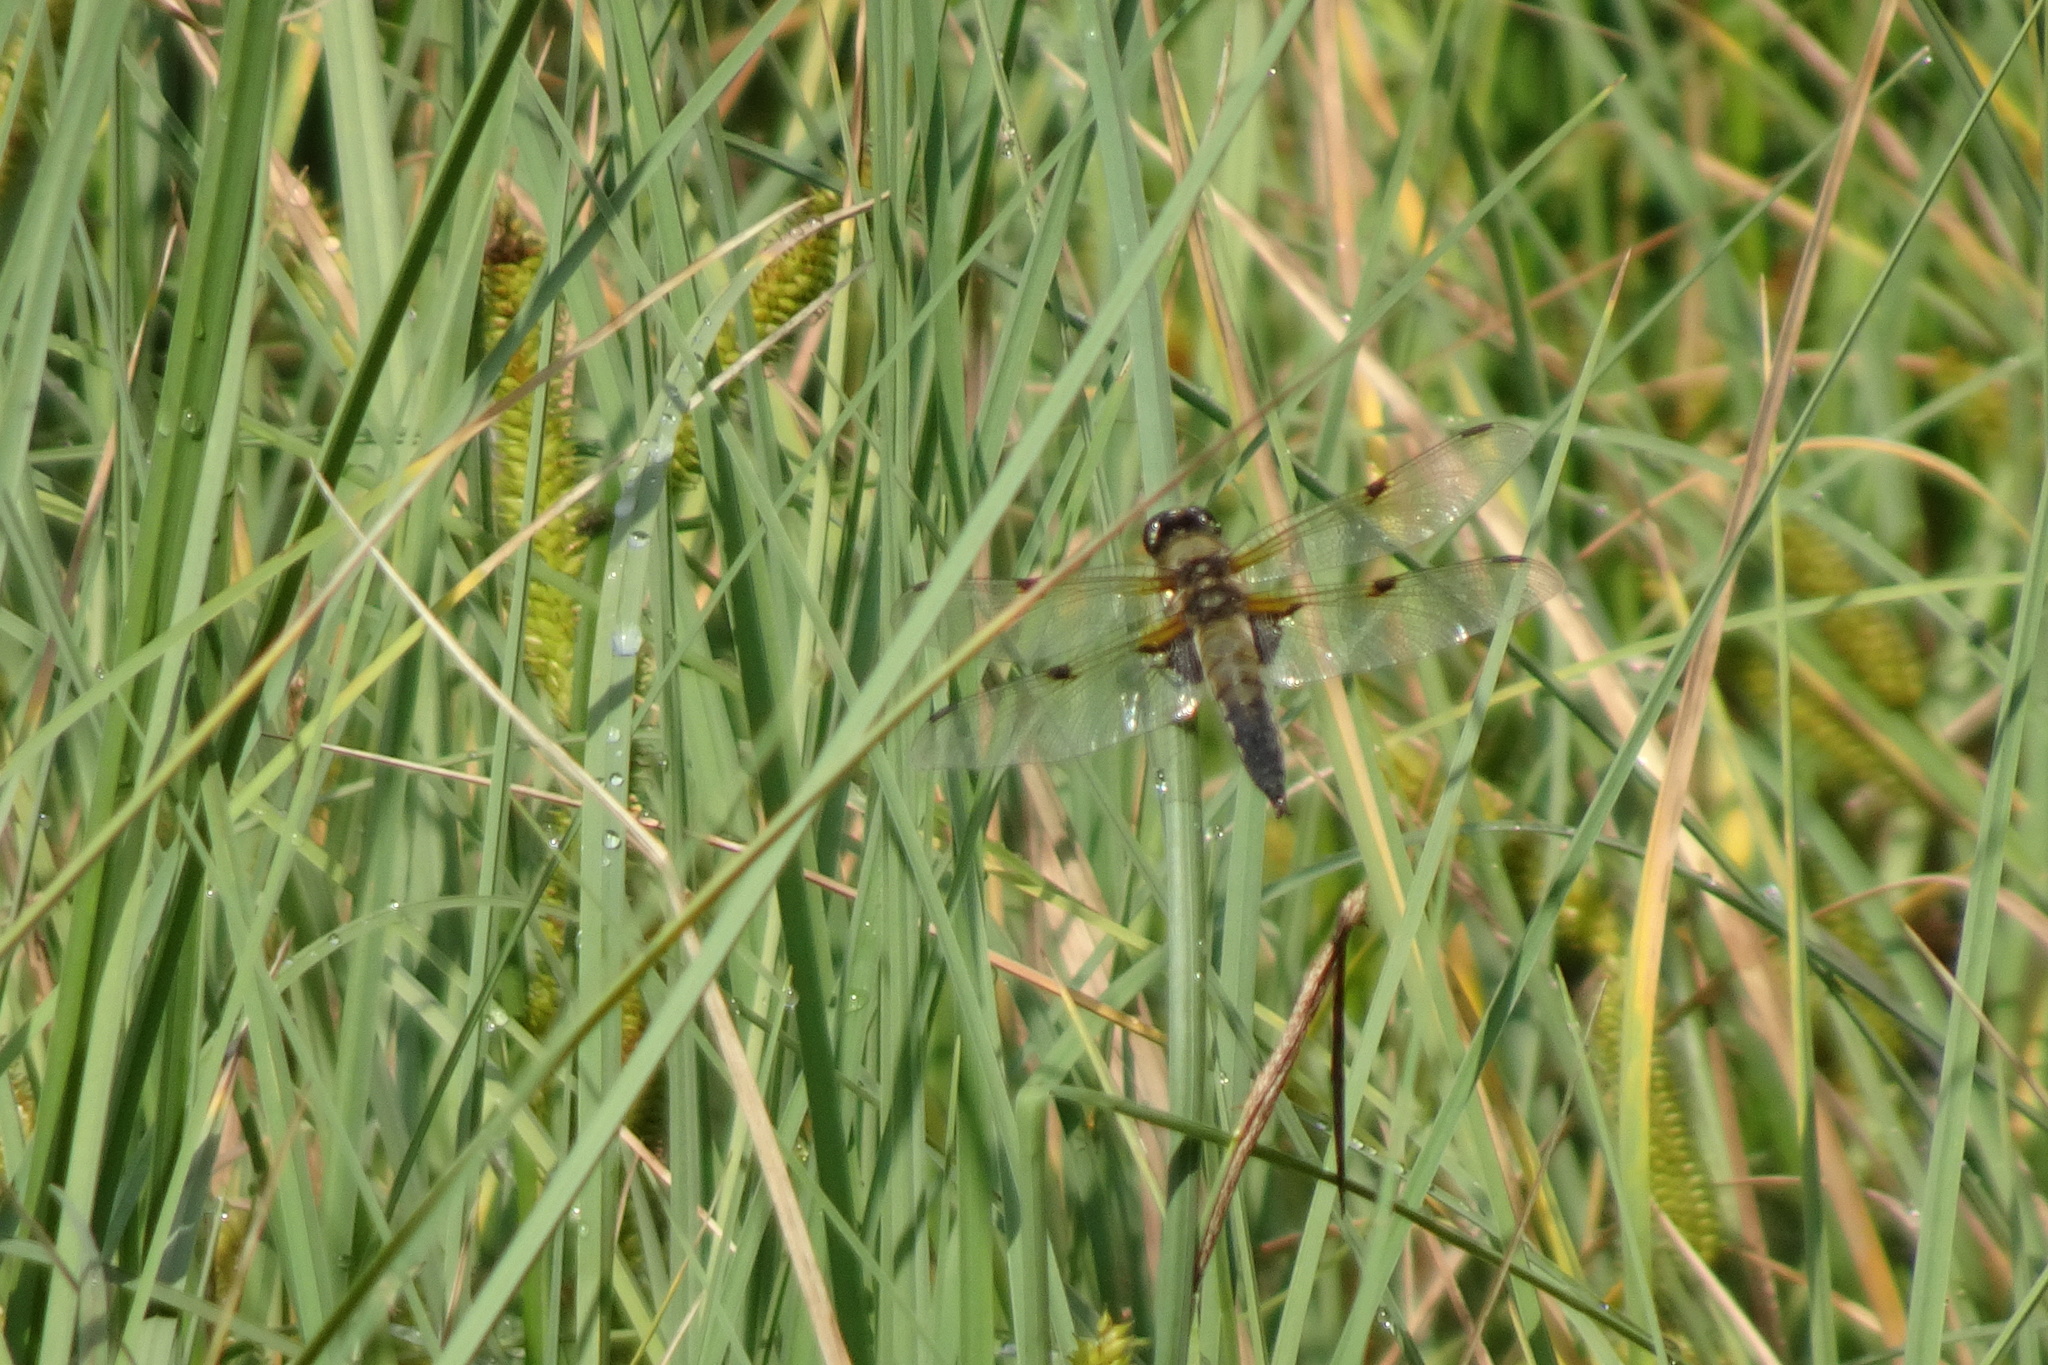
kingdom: Animalia
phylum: Arthropoda
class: Insecta
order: Odonata
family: Libellulidae
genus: Libellula
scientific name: Libellula quadrimaculata
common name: Four-spotted chaser
